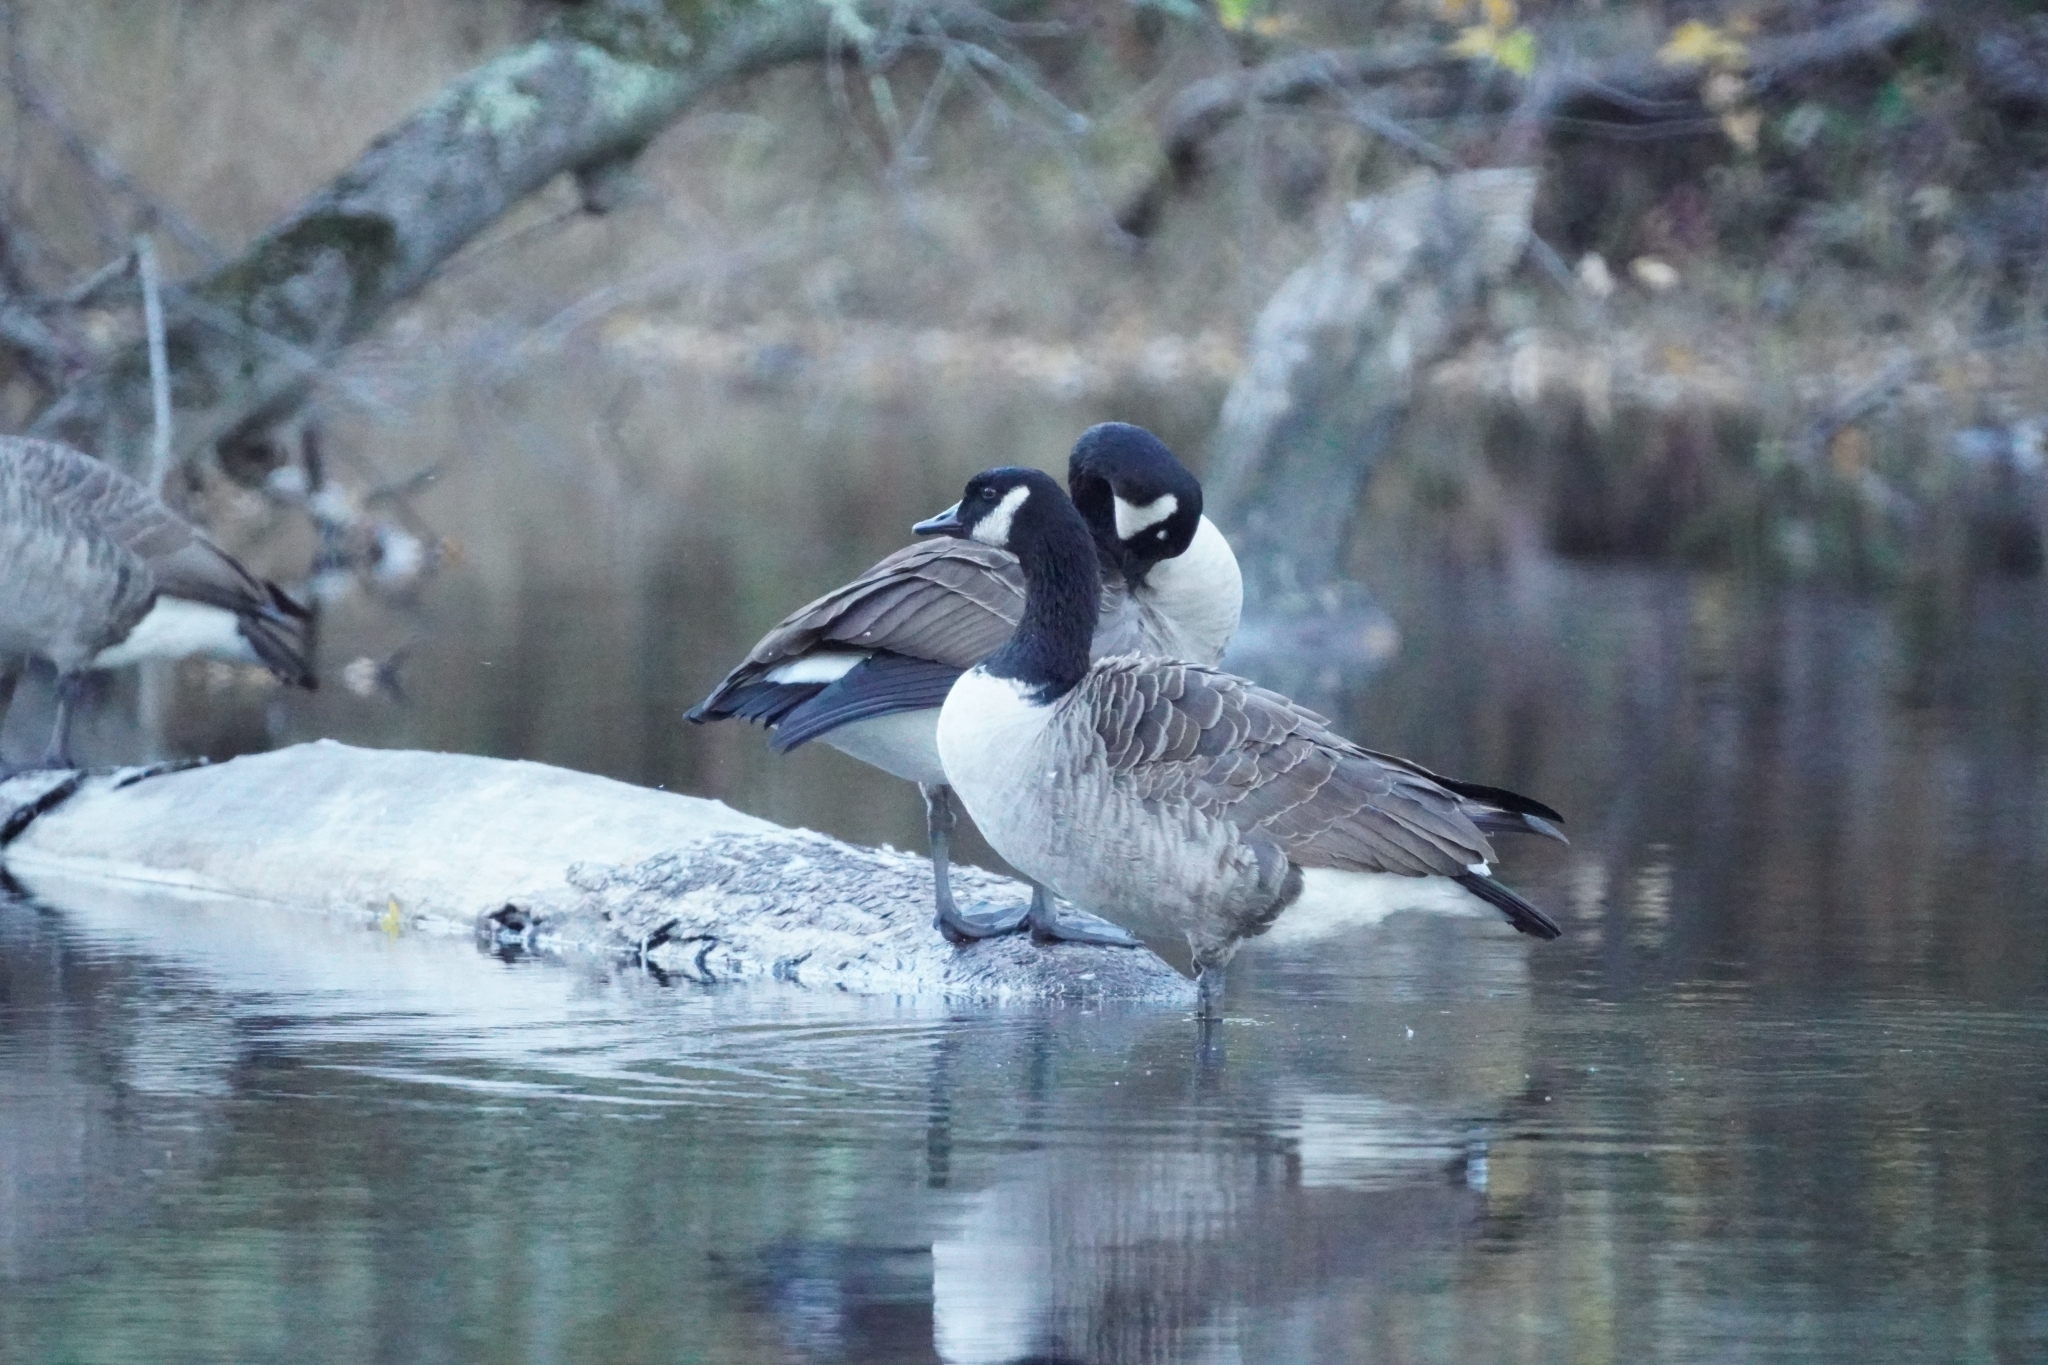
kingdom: Animalia
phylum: Chordata
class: Aves
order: Anseriformes
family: Anatidae
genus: Branta
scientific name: Branta canadensis
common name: Canada goose
